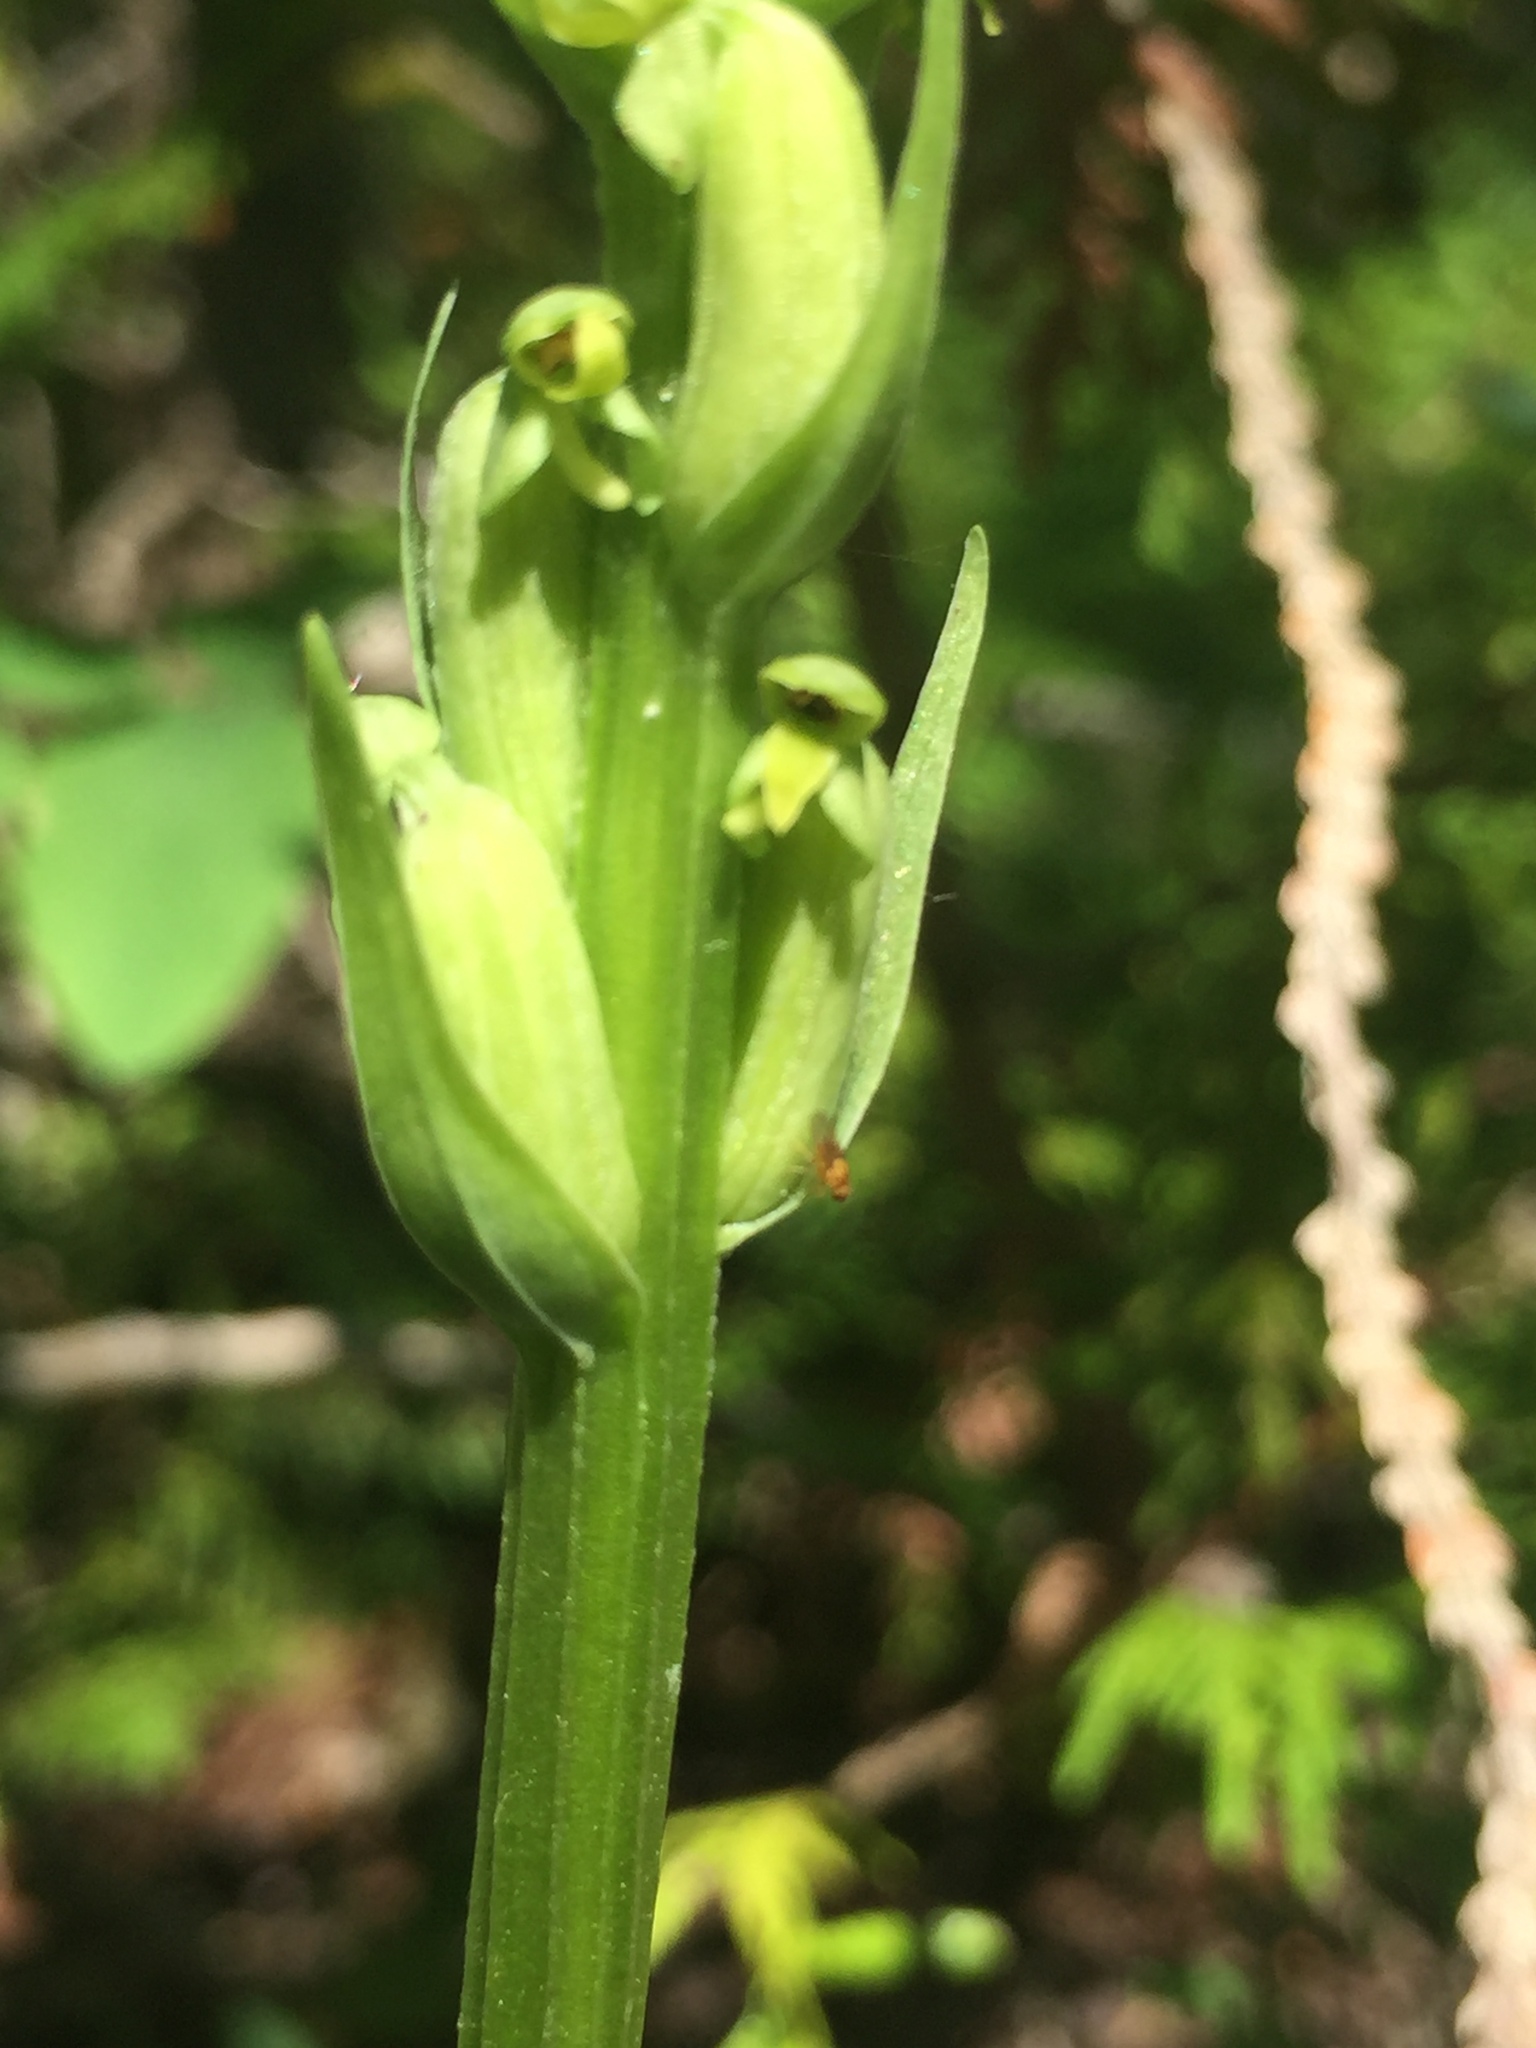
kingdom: Plantae
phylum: Tracheophyta
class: Liliopsida
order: Asparagales
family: Orchidaceae
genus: Platanthera
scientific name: Platanthera aquilonis
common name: Northern green orchid
